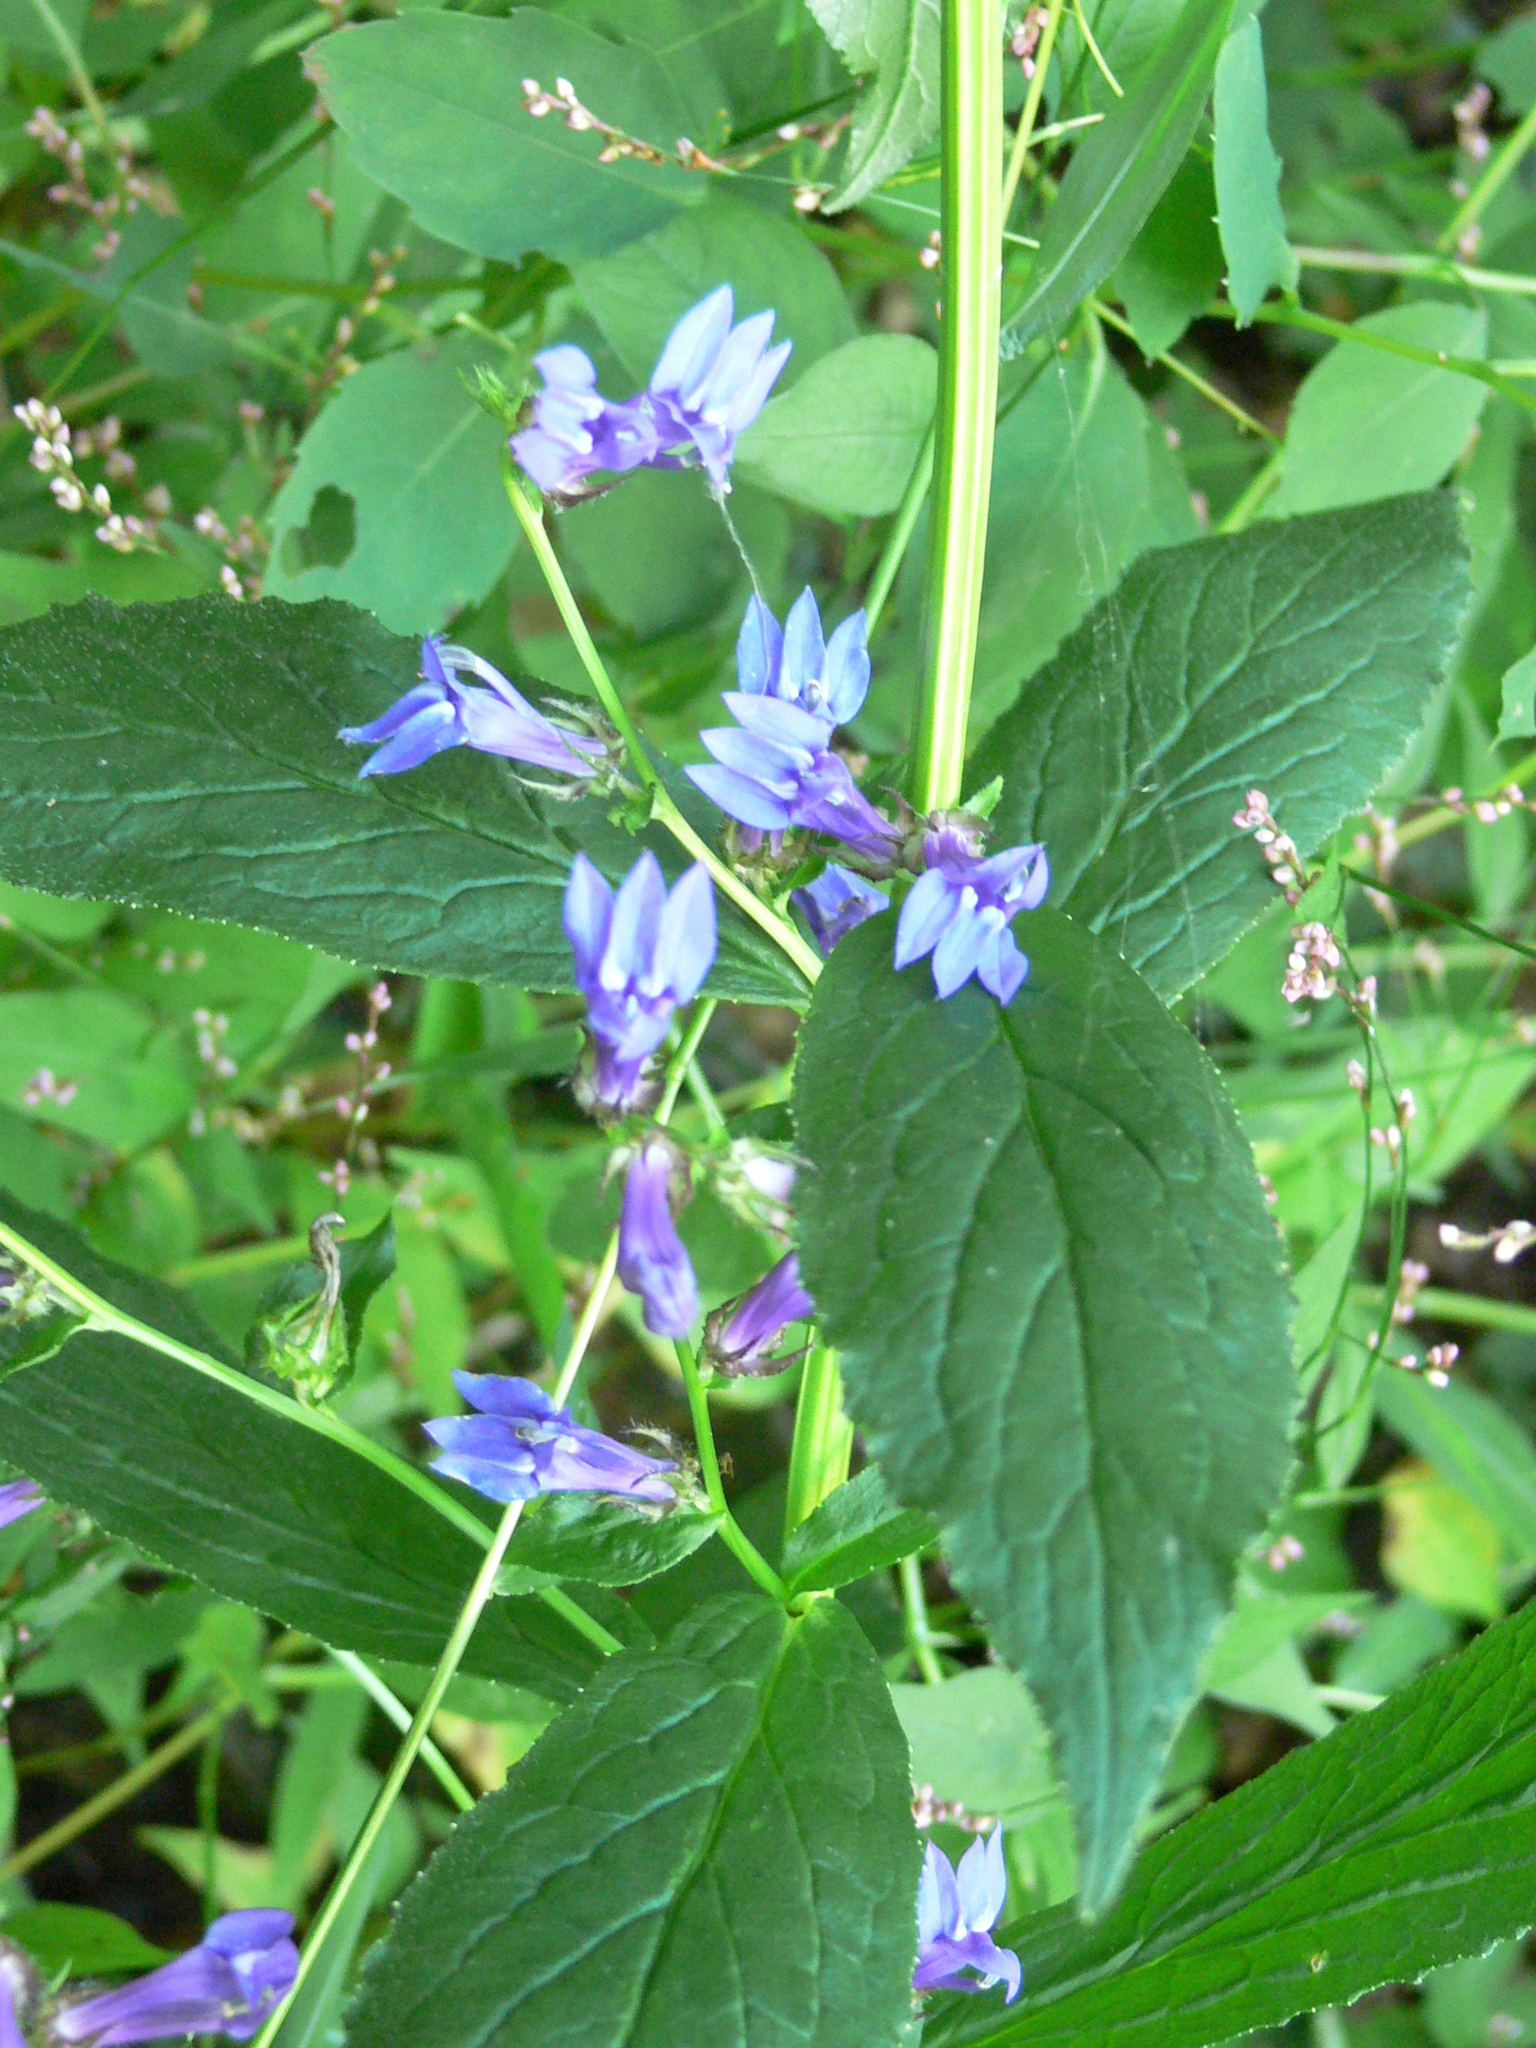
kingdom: Plantae
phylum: Tracheophyta
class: Magnoliopsida
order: Asterales
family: Campanulaceae
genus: Lobelia
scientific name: Lobelia siphilitica
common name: Great lobelia
